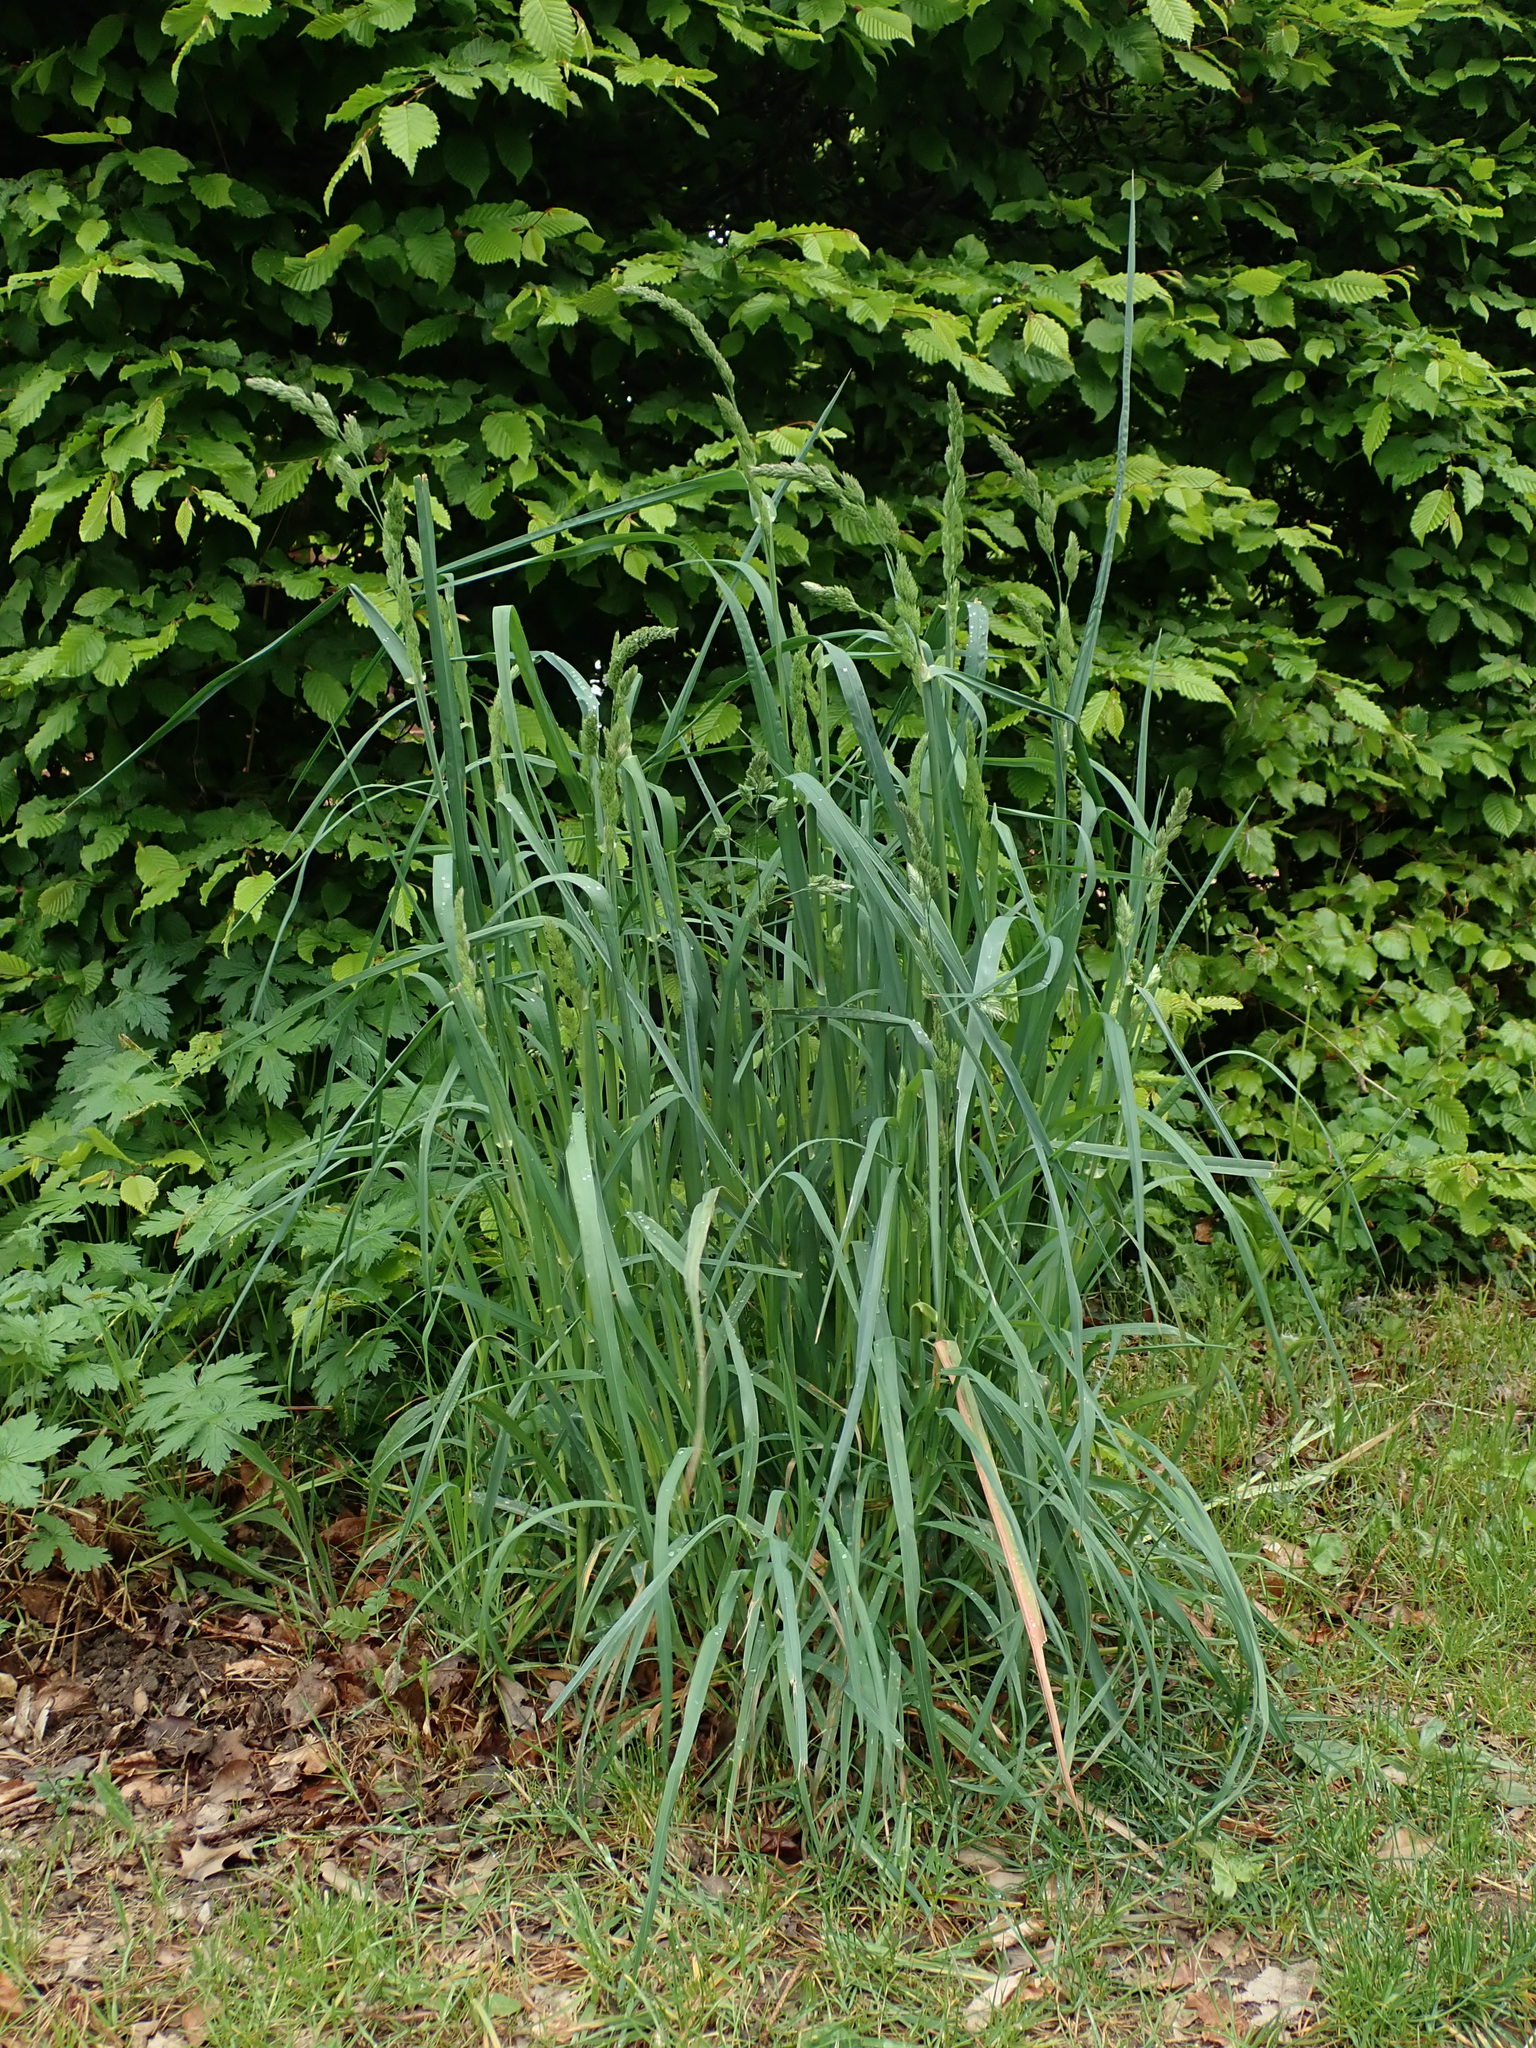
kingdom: Plantae
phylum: Tracheophyta
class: Liliopsida
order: Poales
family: Poaceae
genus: Dactylis
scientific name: Dactylis glomerata
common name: Orchardgrass
